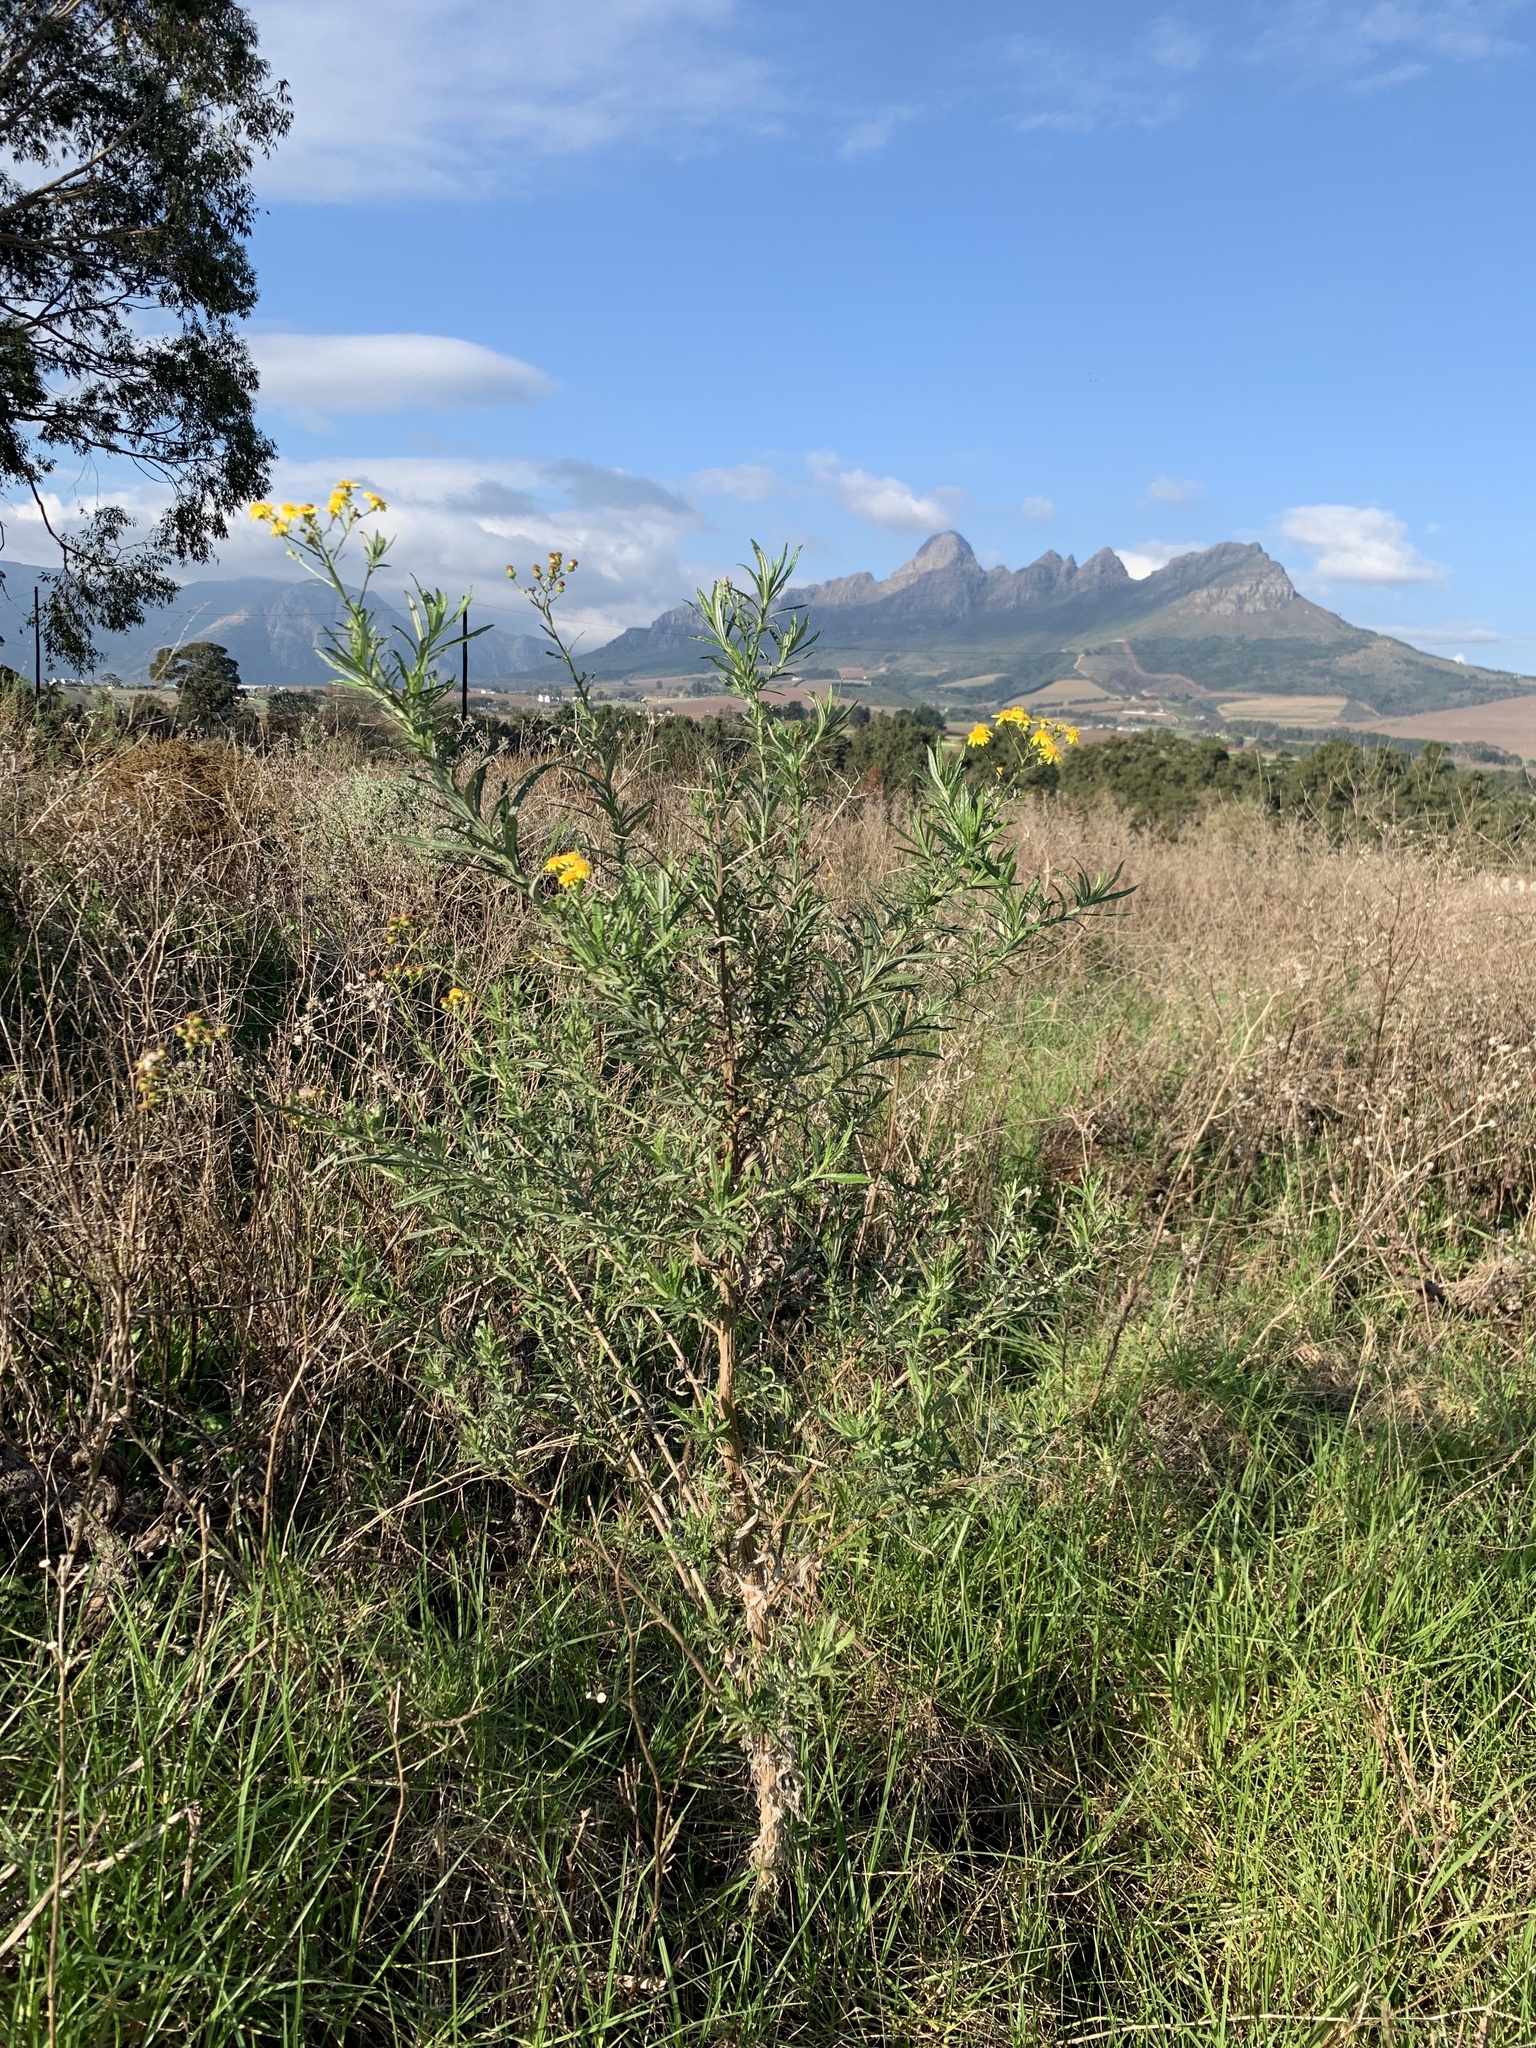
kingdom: Plantae
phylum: Tracheophyta
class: Magnoliopsida
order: Asterales
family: Asteraceae
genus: Senecio
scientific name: Senecio pterophorus
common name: Shoddy ragwort
